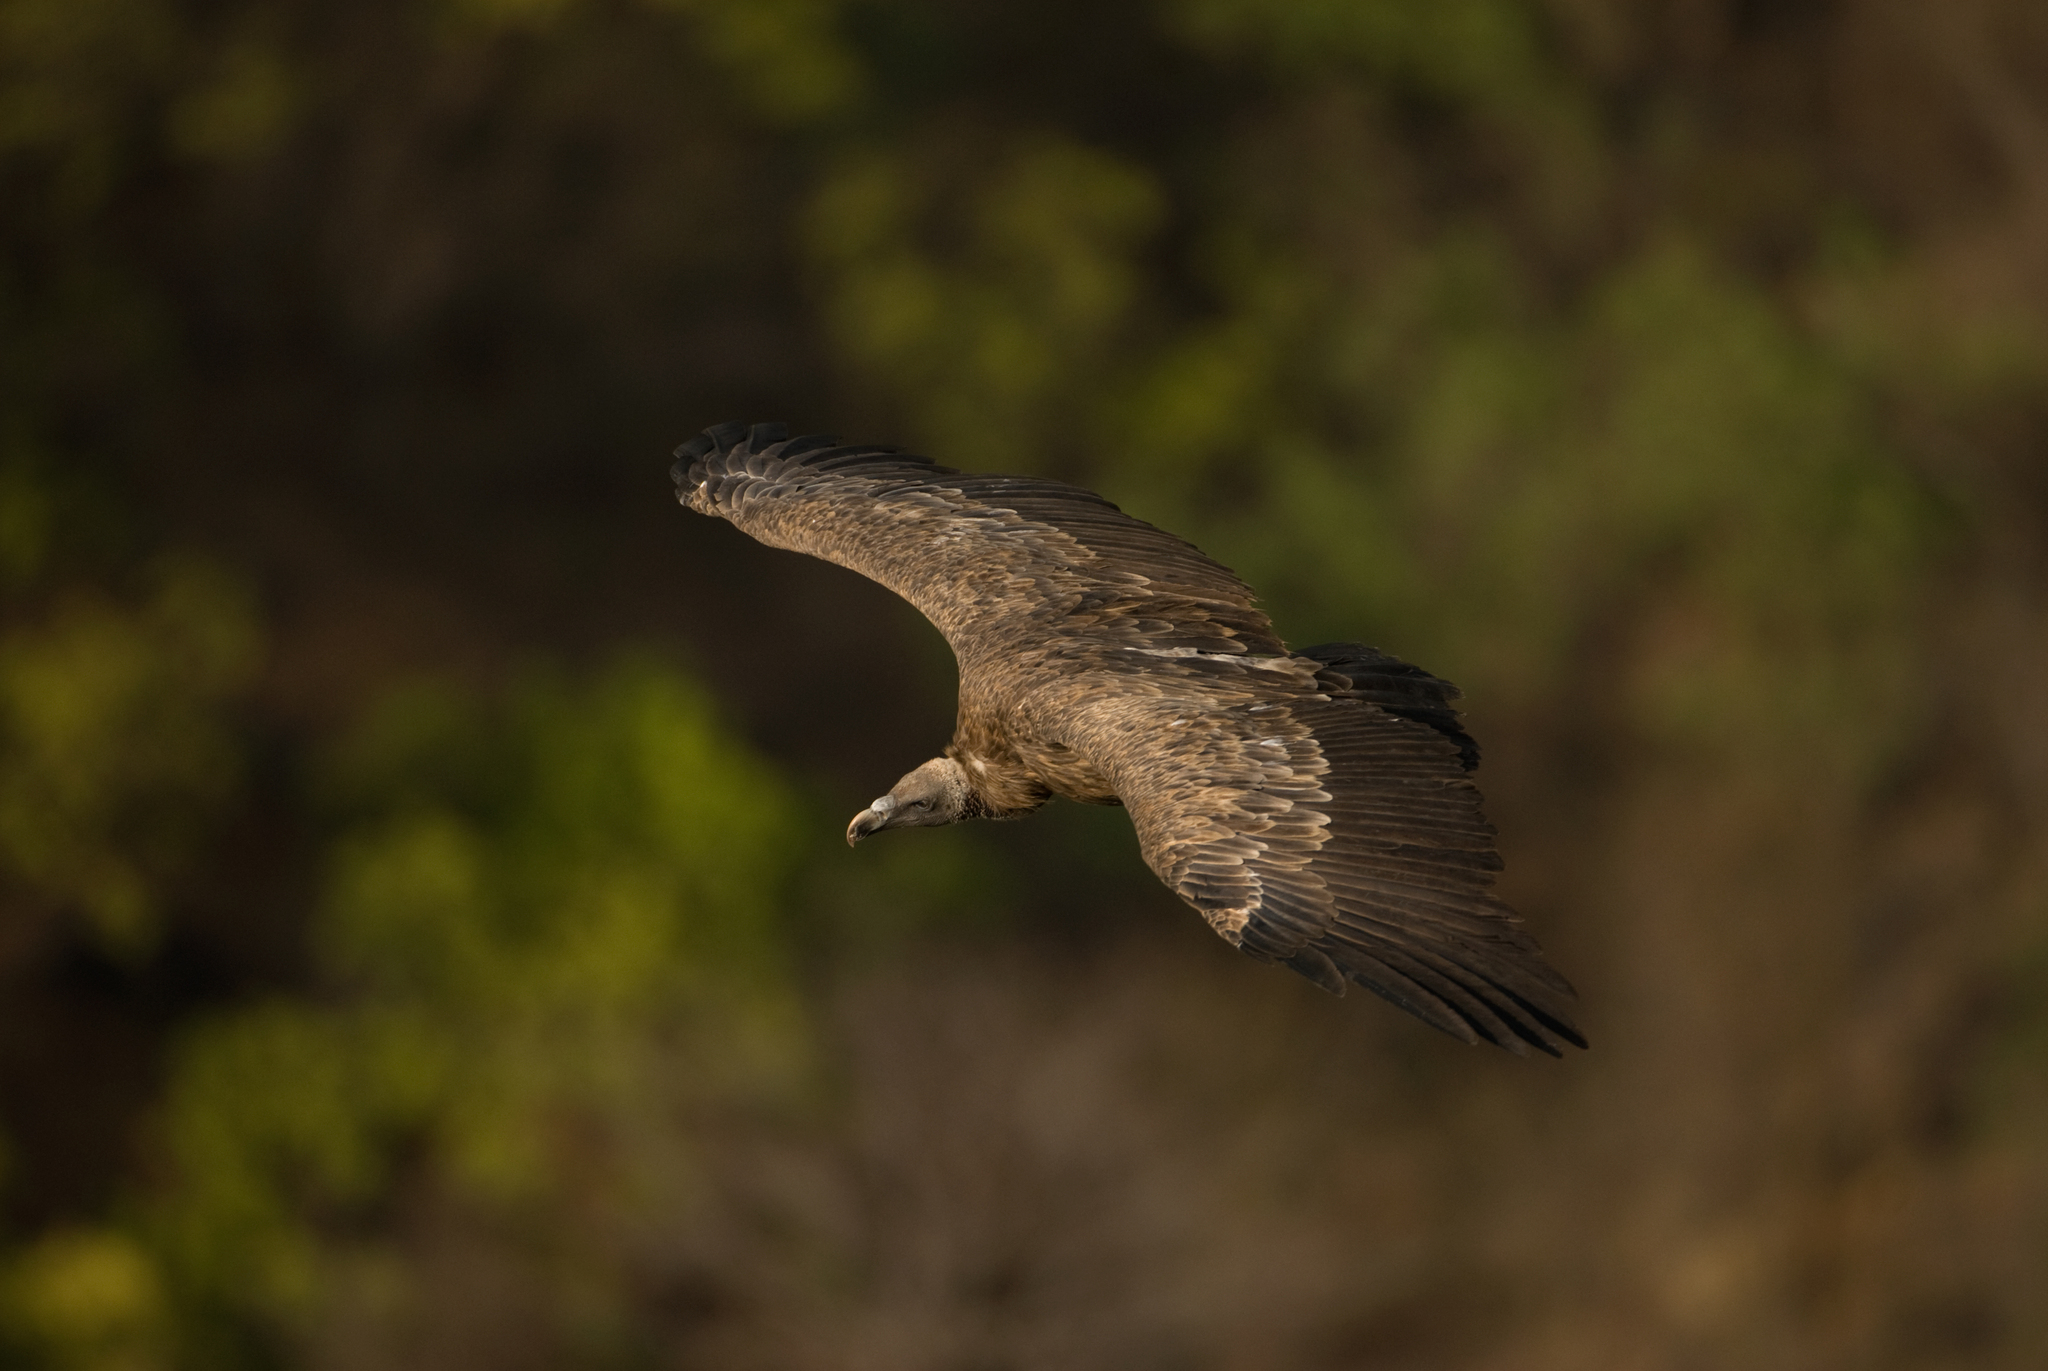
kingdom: Animalia
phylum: Chordata
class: Aves
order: Accipitriformes
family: Accipitridae
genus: Gyps
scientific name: Gyps indicus
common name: Indian vulture
